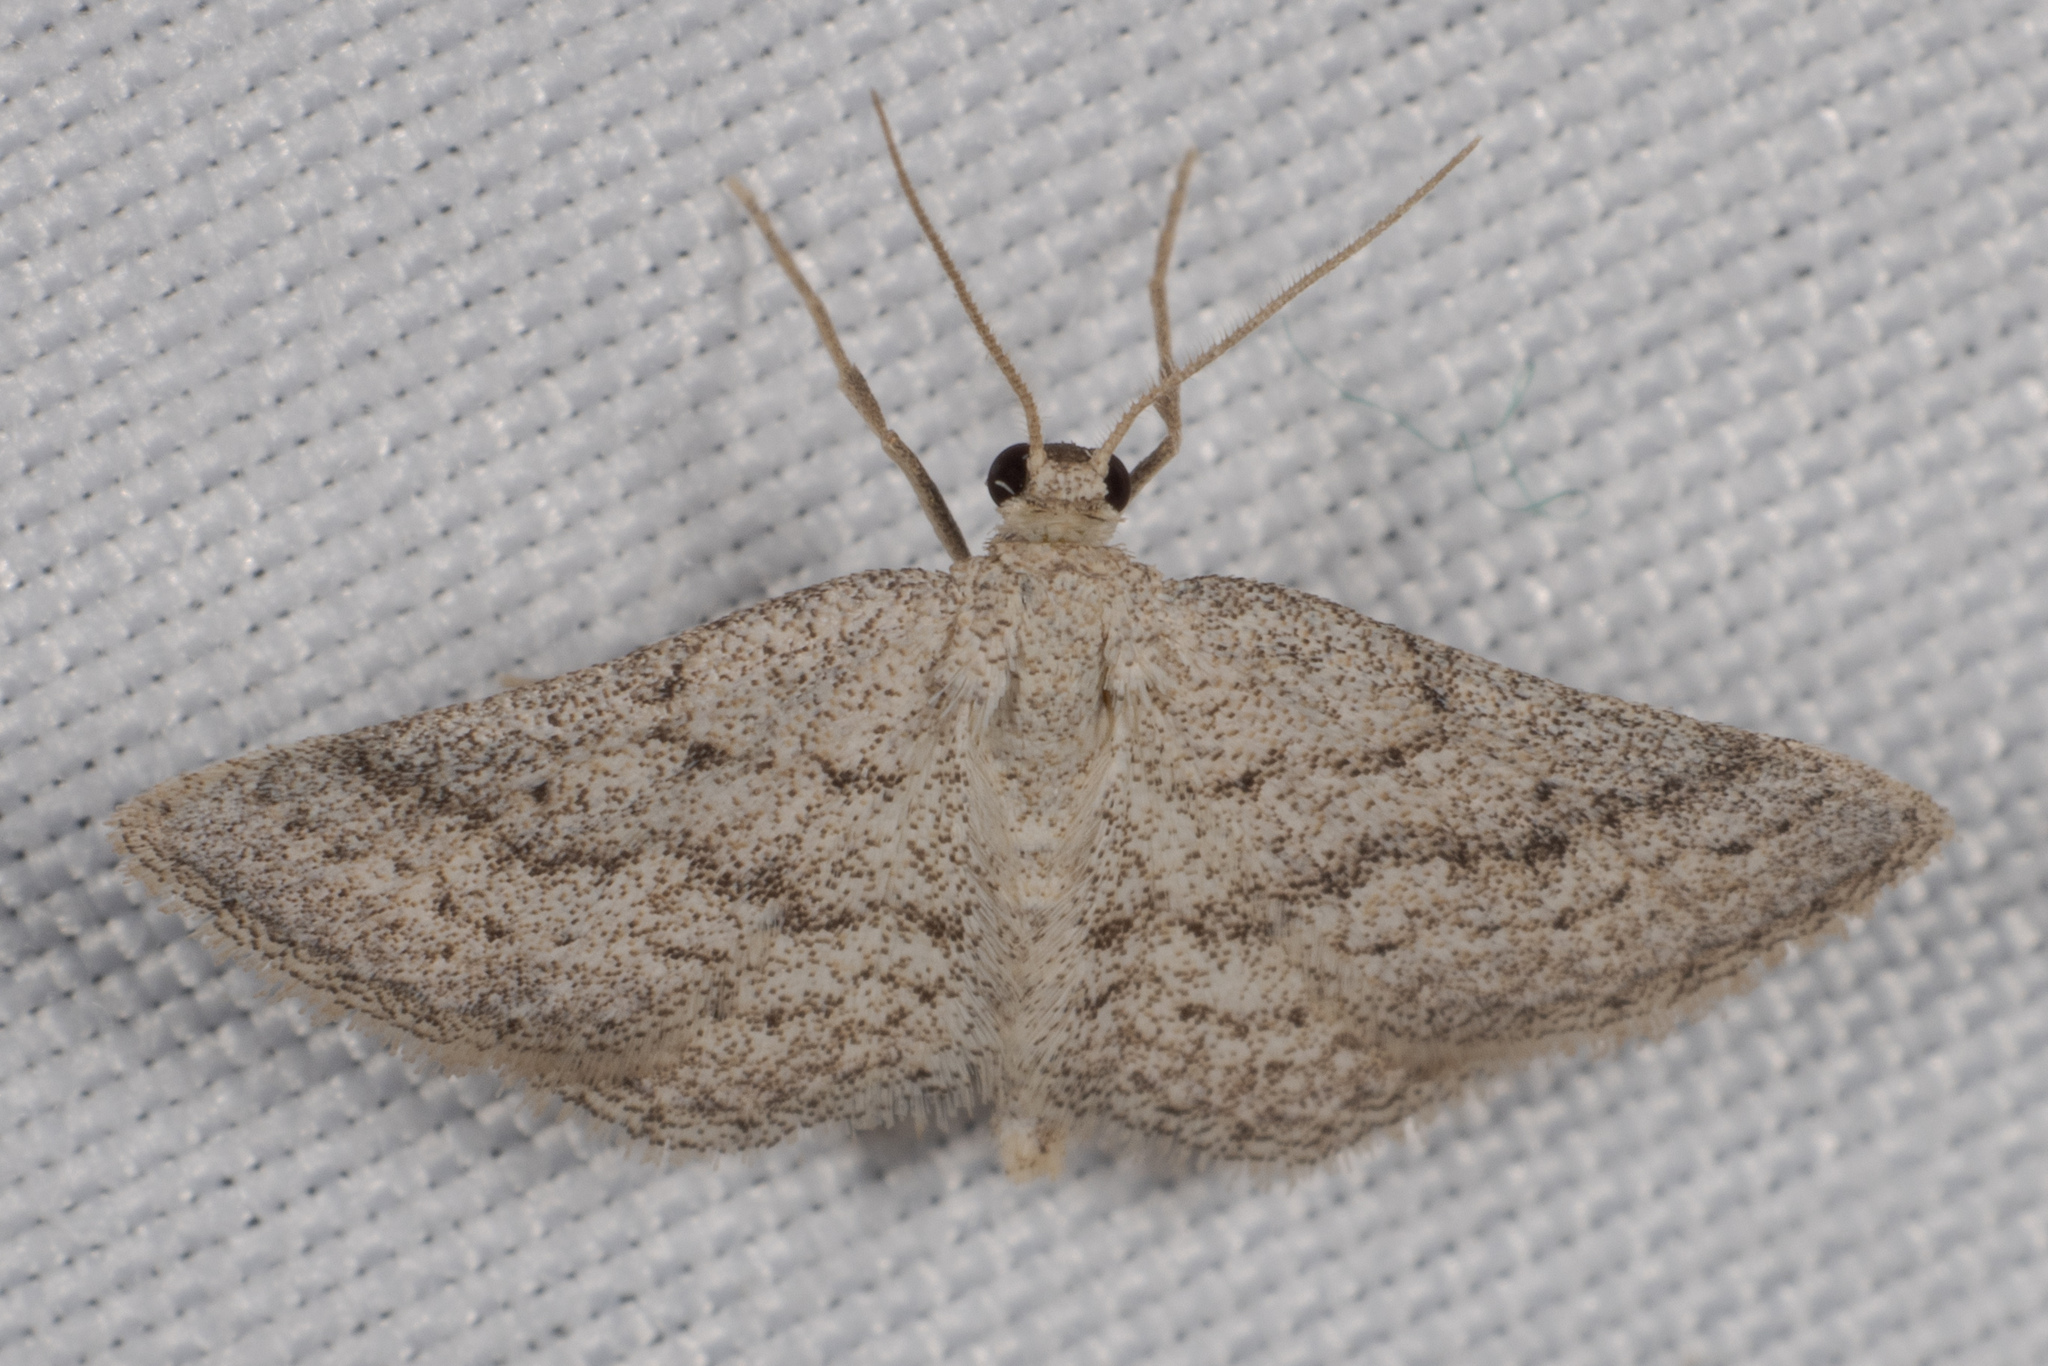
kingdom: Animalia
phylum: Arthropoda
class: Insecta
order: Lepidoptera
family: Geometridae
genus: Lobocleta
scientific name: Lobocleta ossularia
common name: Drab brown wave
